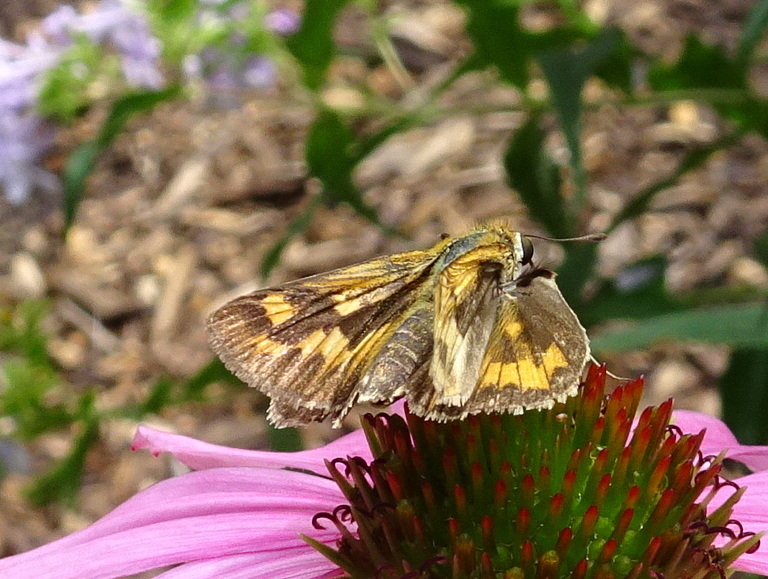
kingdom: Animalia
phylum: Arthropoda
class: Insecta
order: Lepidoptera
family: Hesperiidae
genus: Hylephila
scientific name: Hylephila phyleus
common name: Fiery skipper
